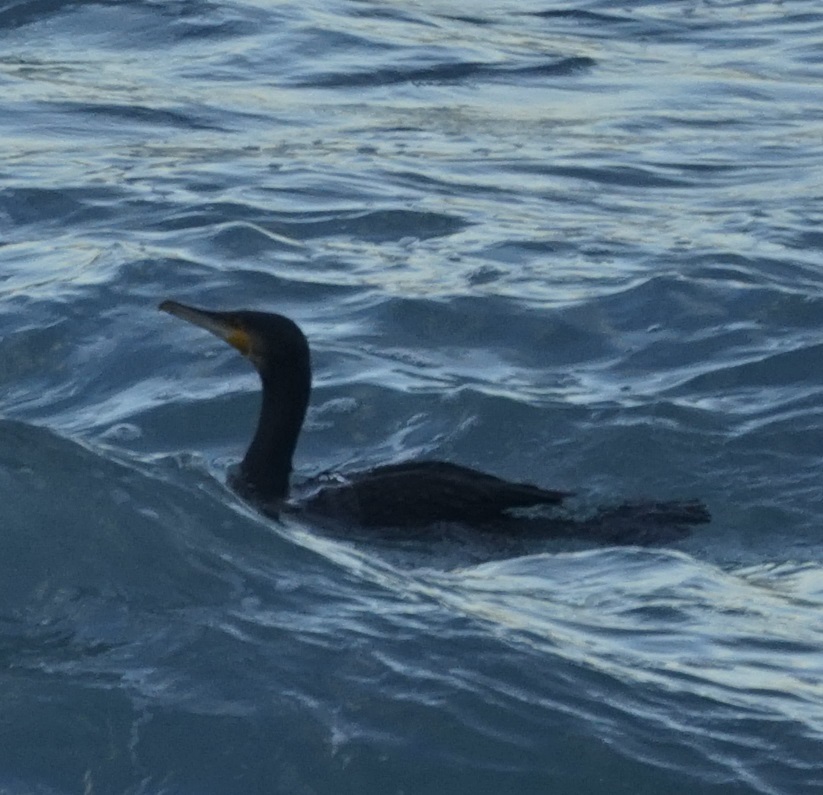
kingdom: Animalia
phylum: Chordata
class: Aves
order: Suliformes
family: Phalacrocoracidae
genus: Phalacrocorax
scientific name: Phalacrocorax carbo
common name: Great cormorant
